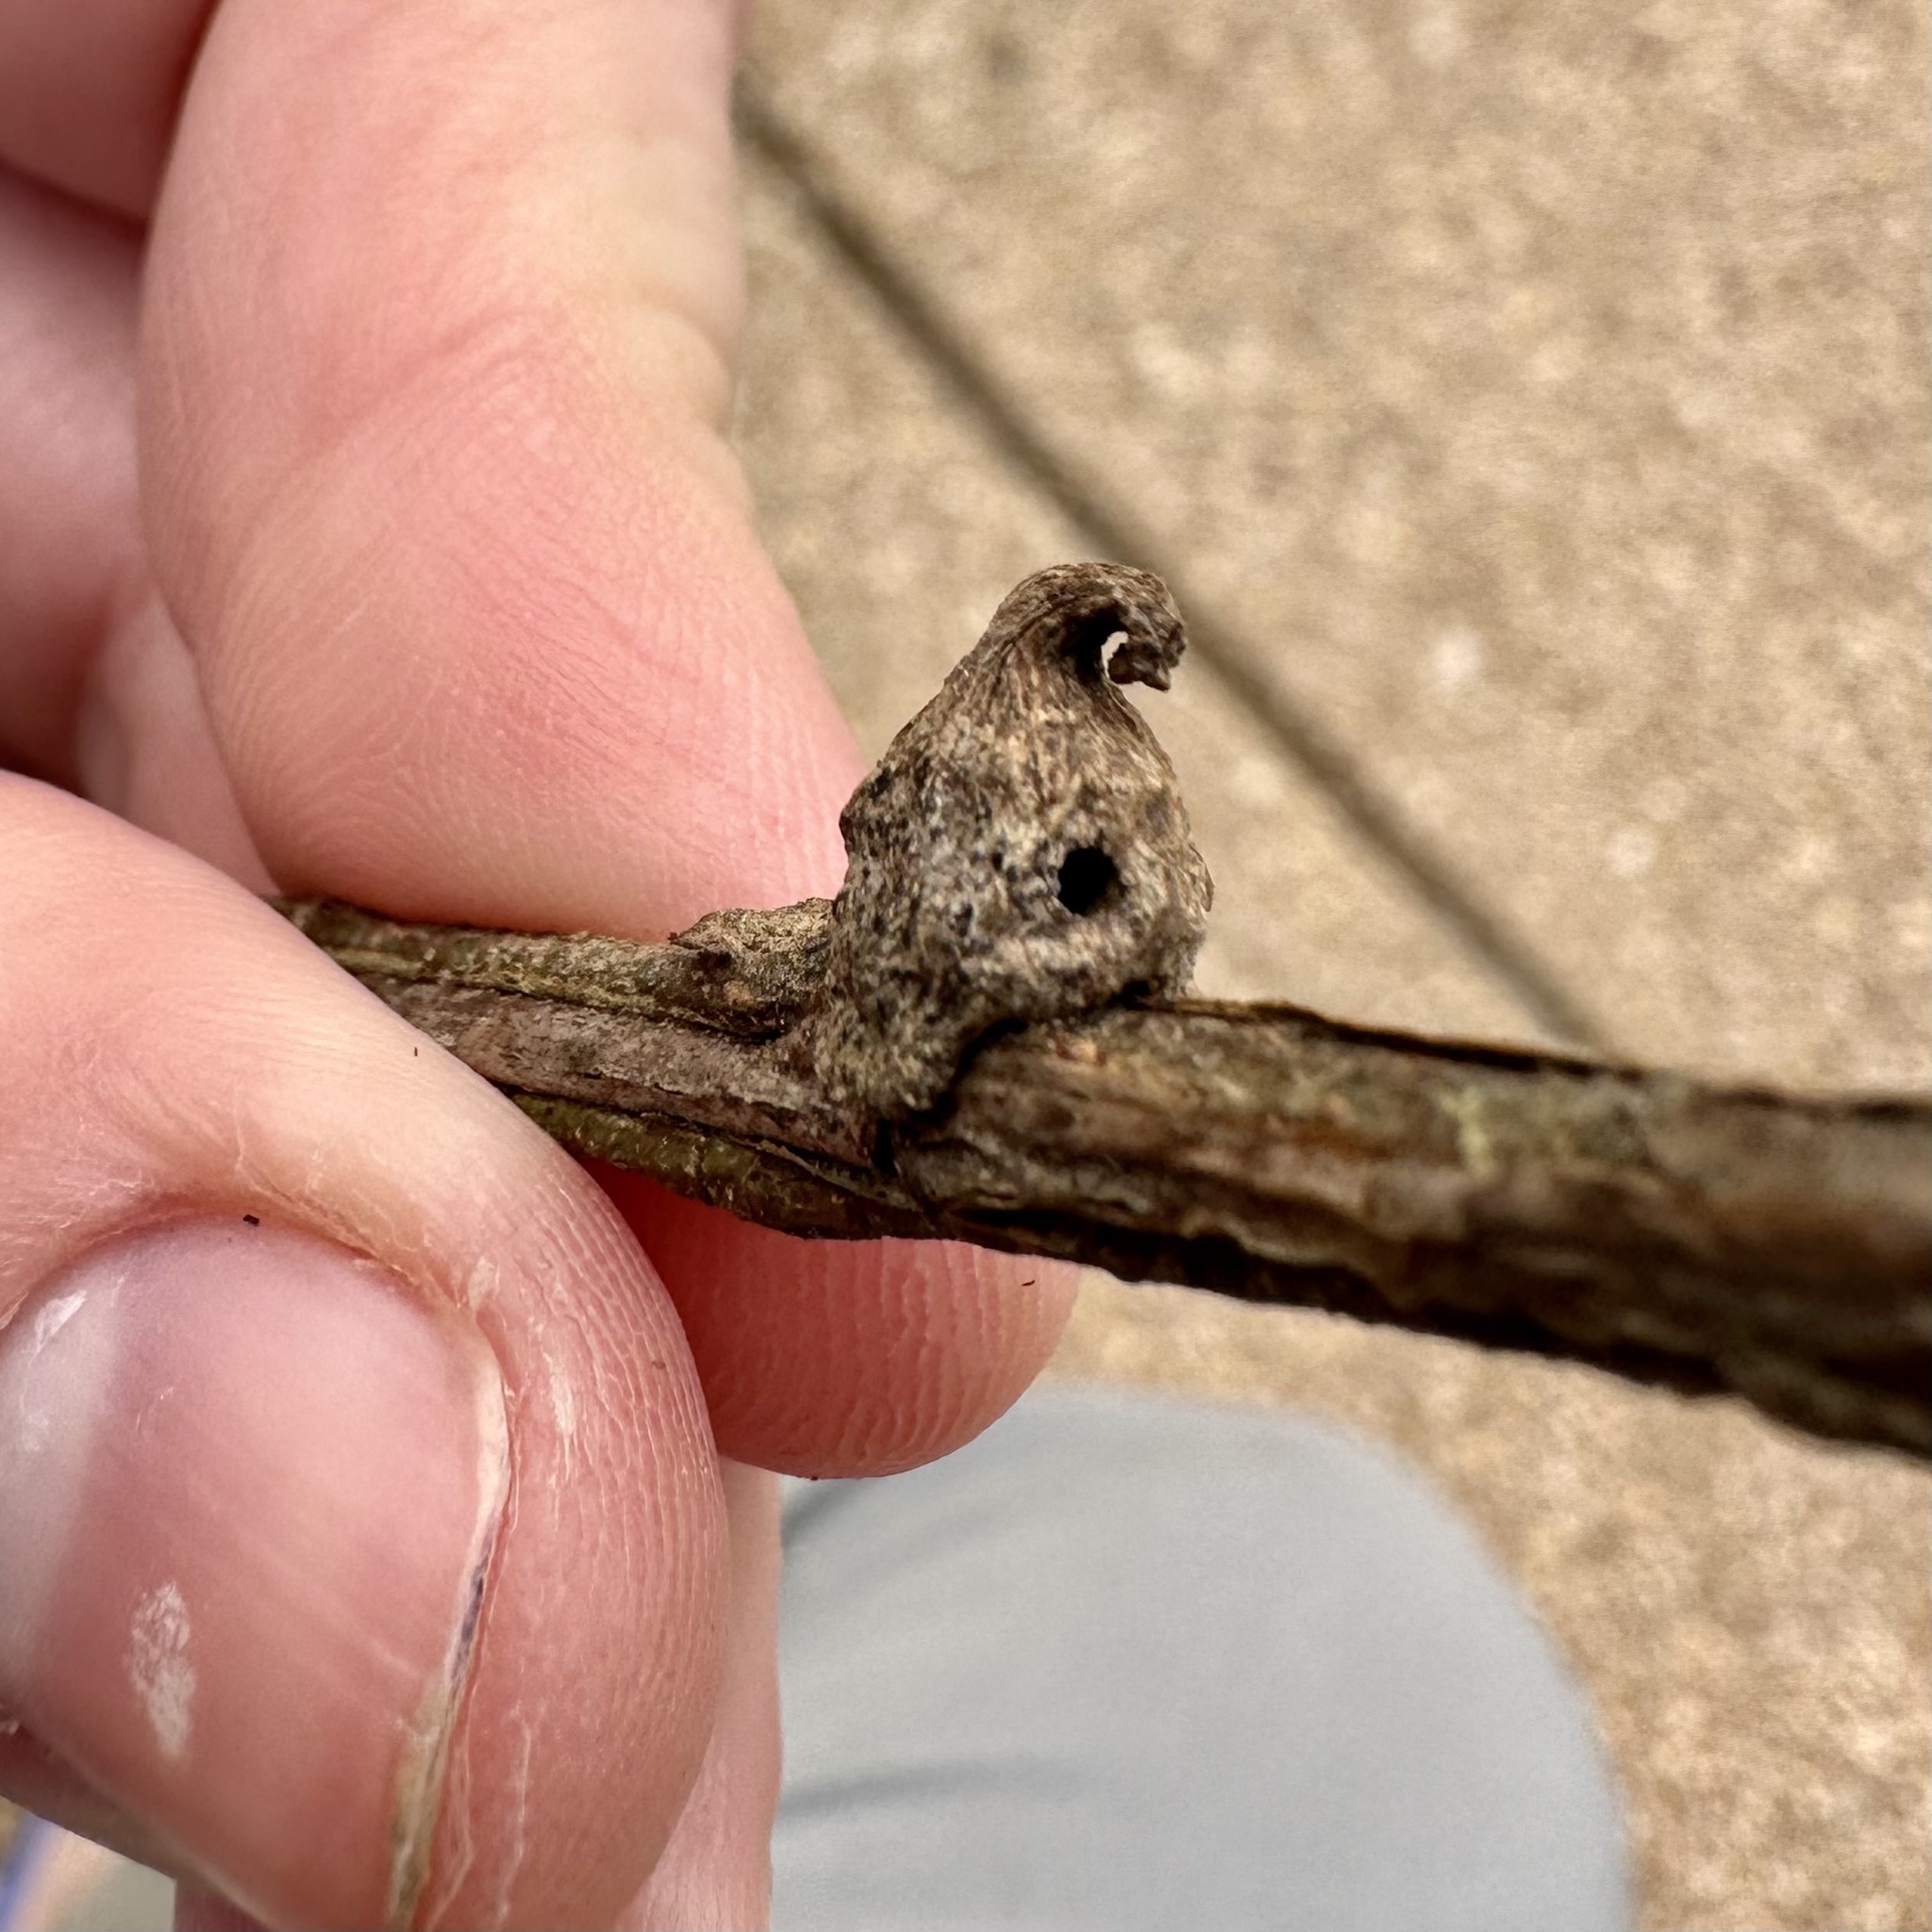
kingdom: Animalia
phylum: Arthropoda
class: Insecta
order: Hymenoptera
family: Cynipidae
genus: Callirhytis
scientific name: Callirhytis
